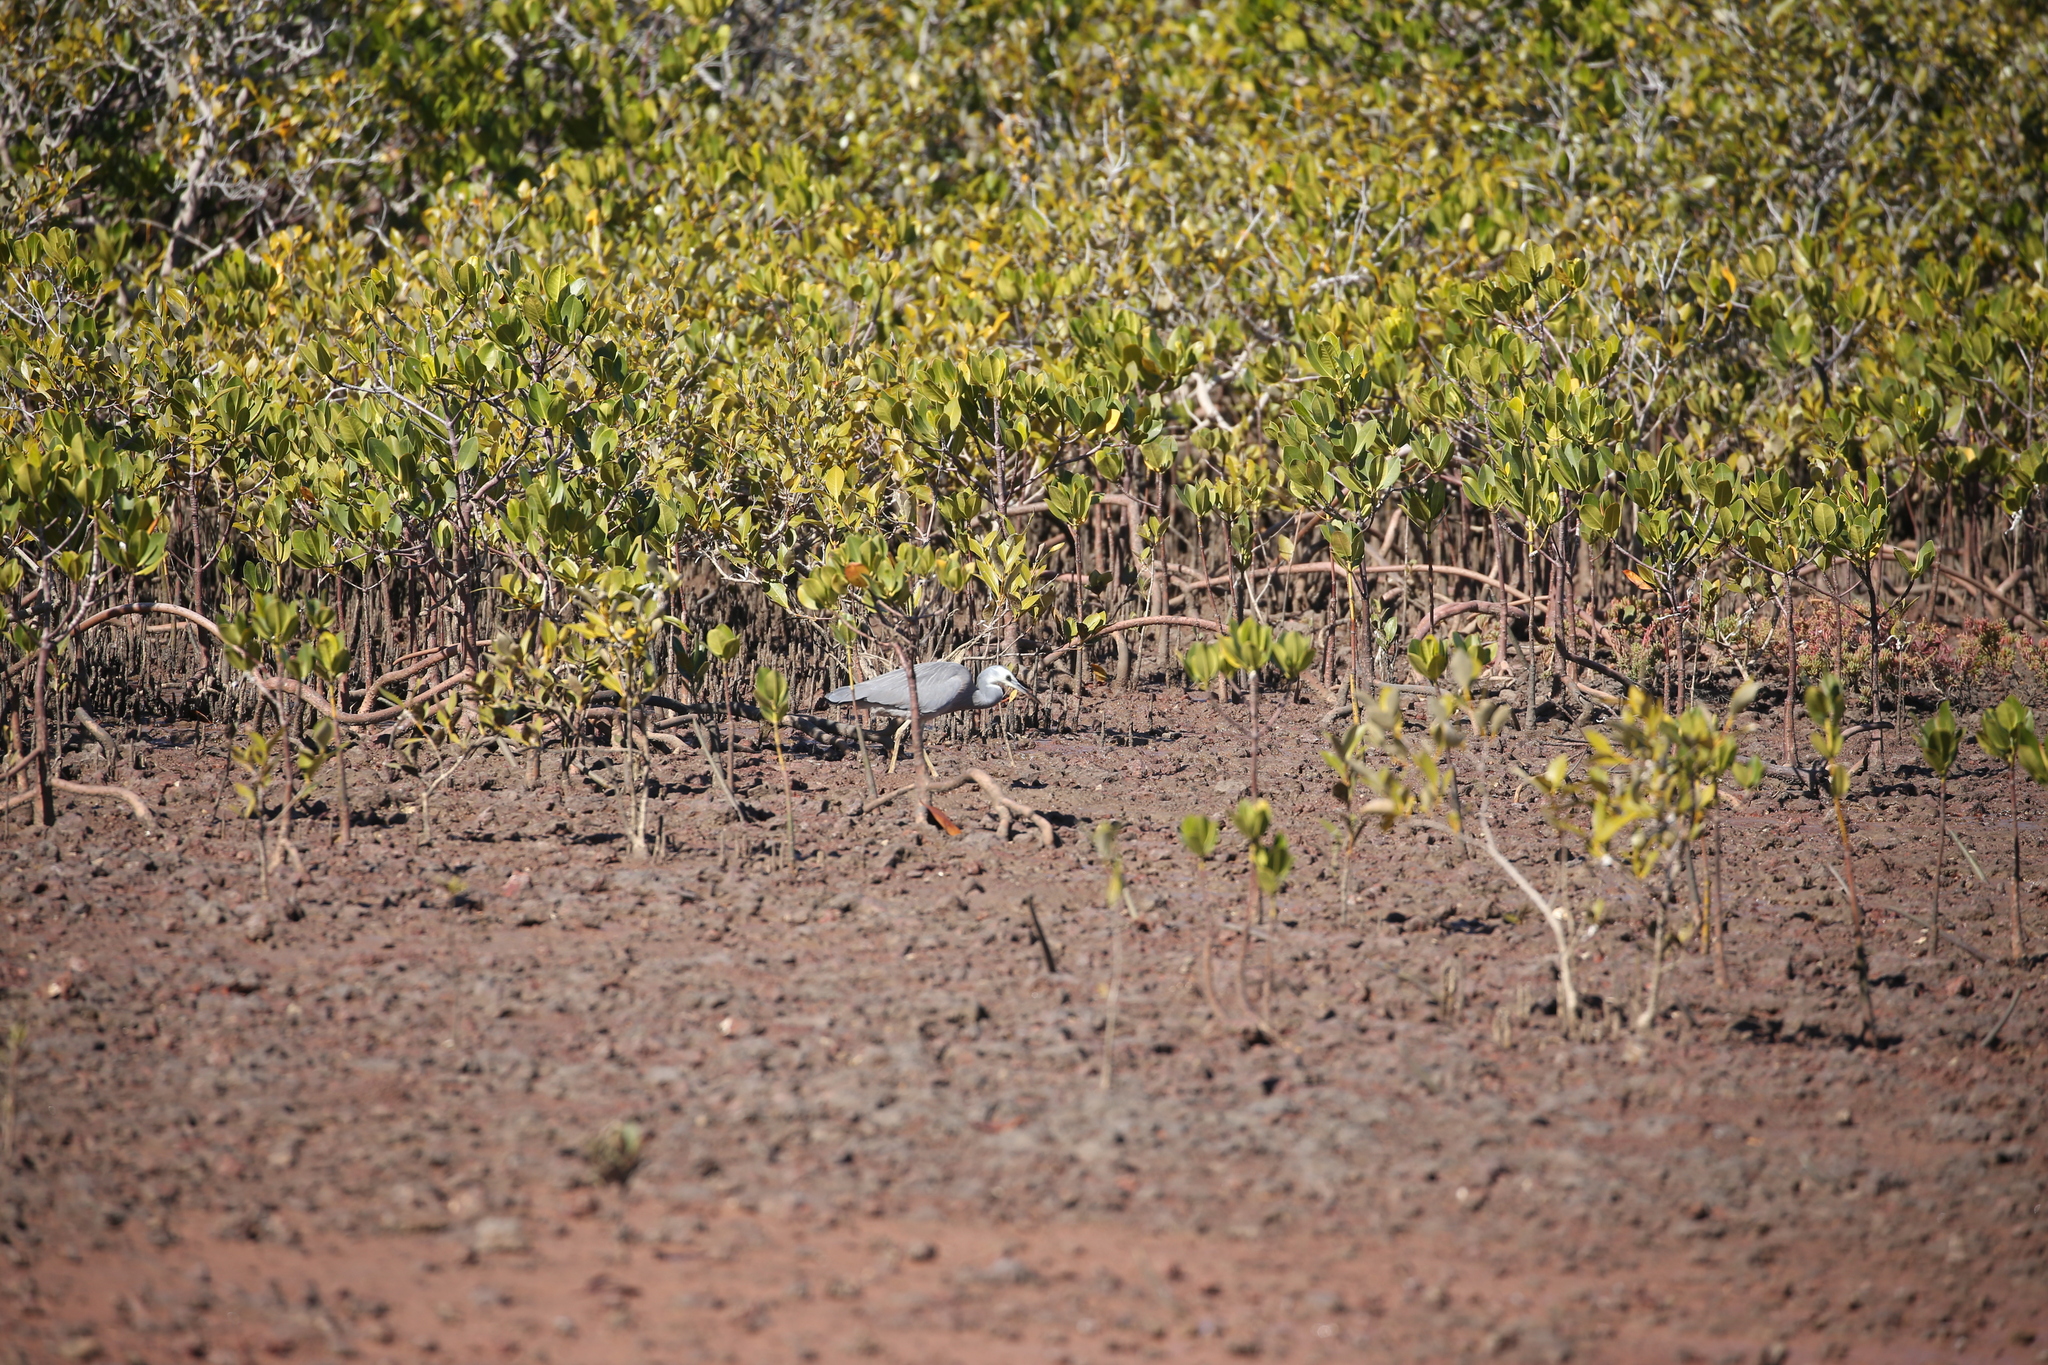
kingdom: Animalia
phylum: Chordata
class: Aves
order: Pelecaniformes
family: Ardeidae
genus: Egretta
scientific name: Egretta novaehollandiae
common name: White-faced heron
